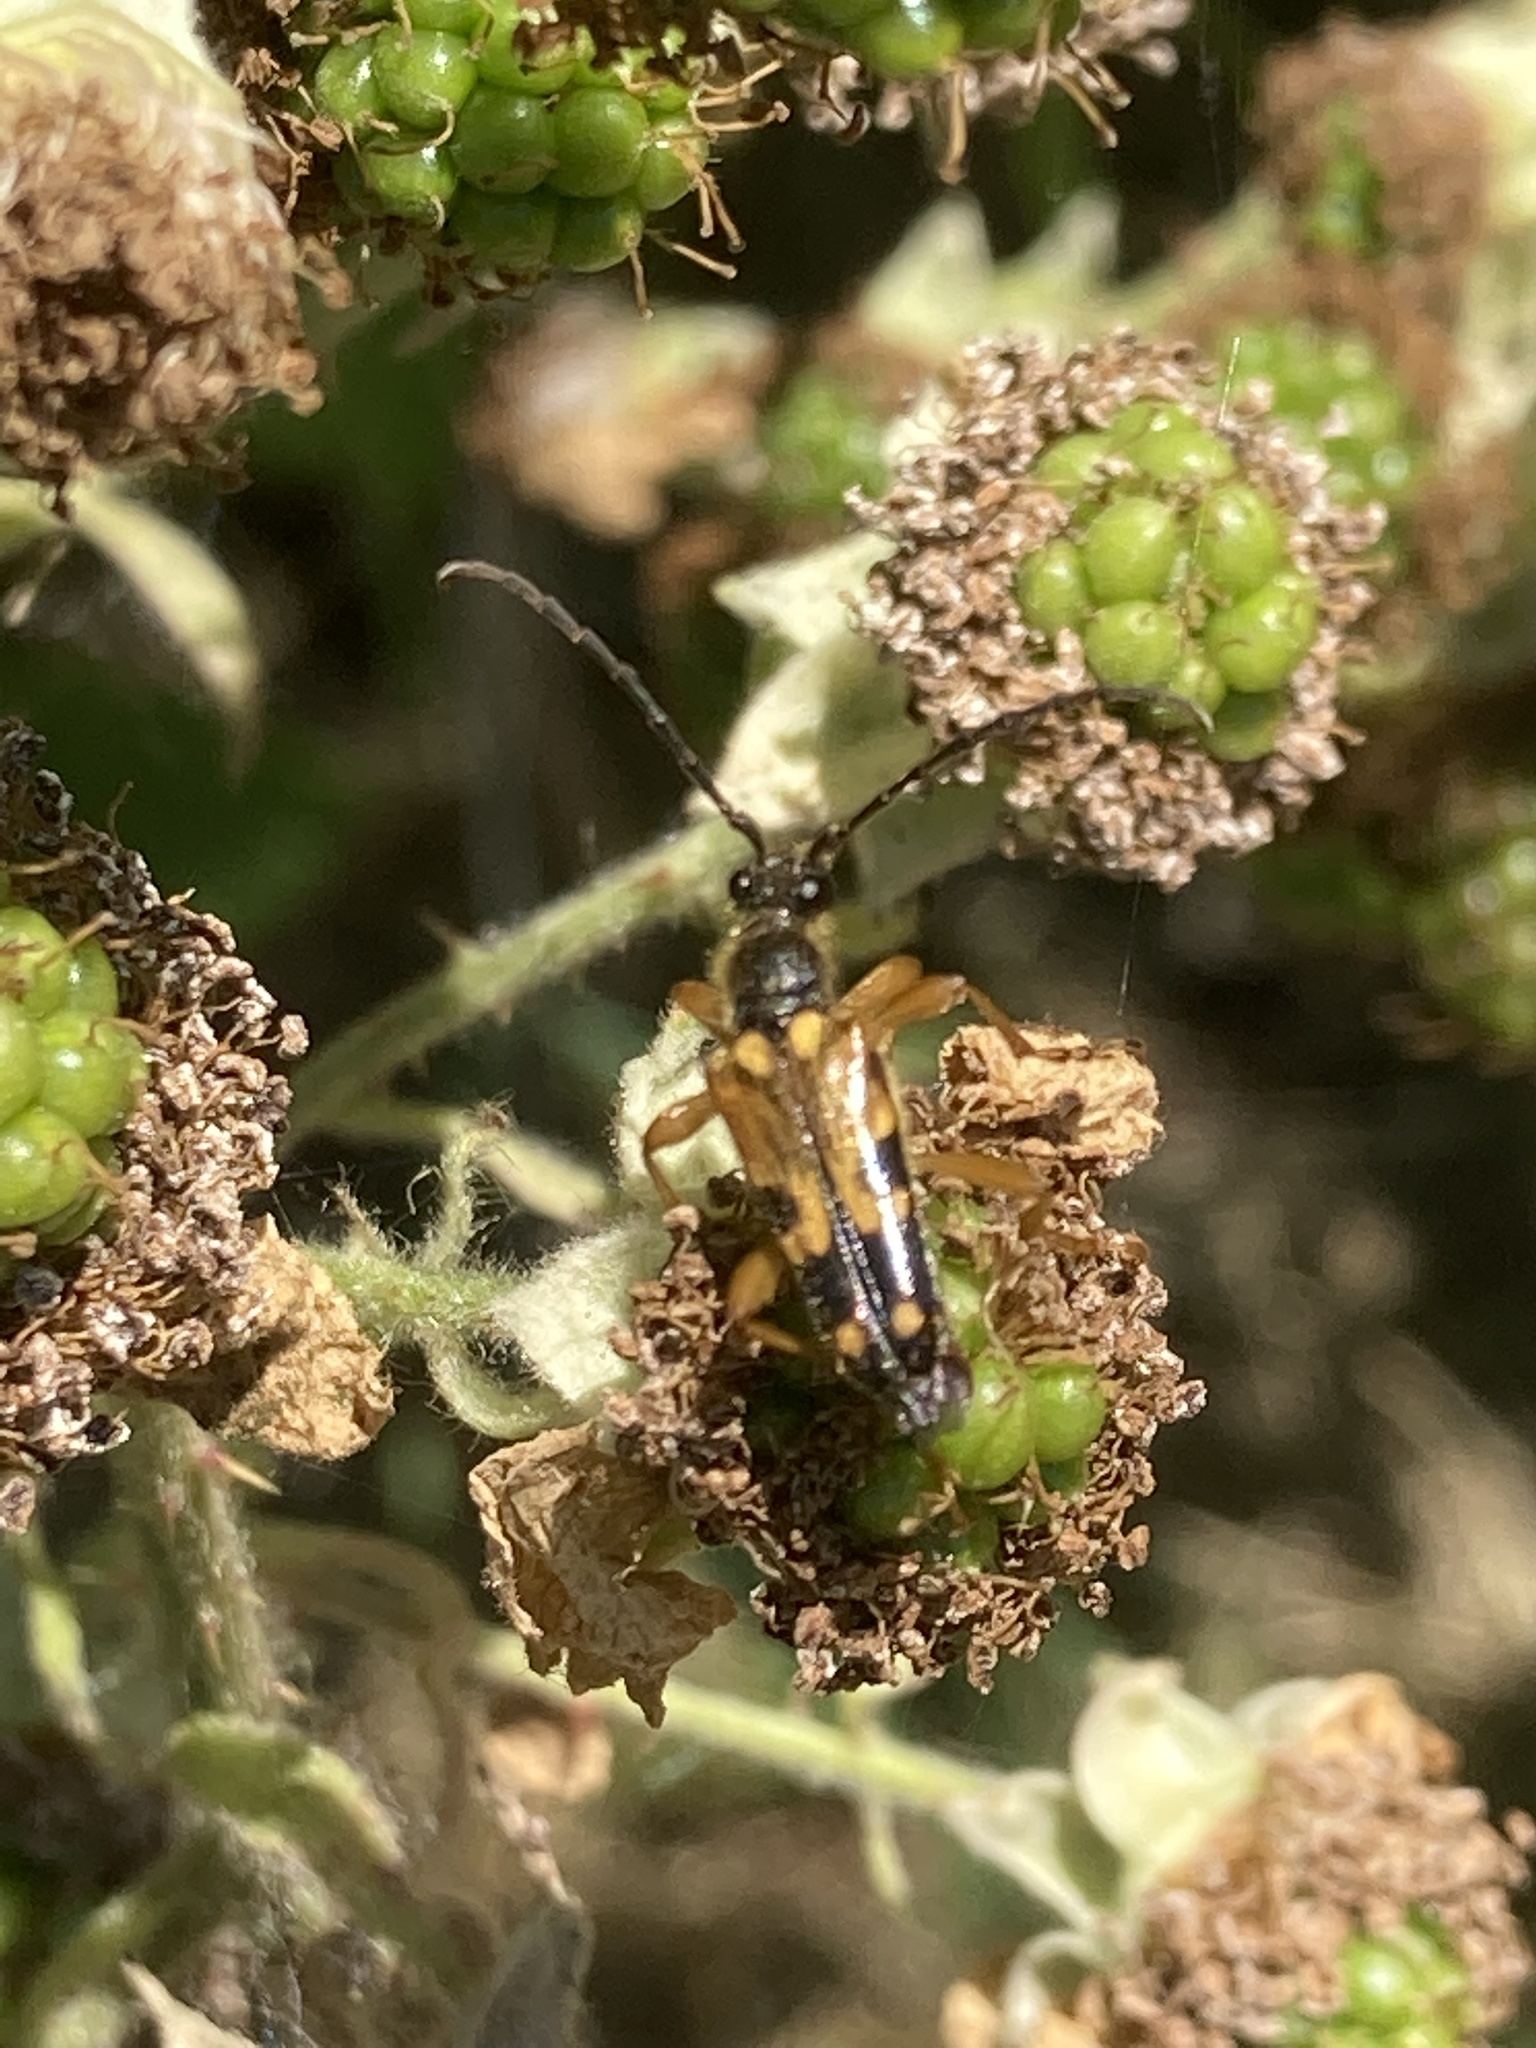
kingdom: Animalia
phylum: Arthropoda
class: Insecta
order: Coleoptera
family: Cerambycidae
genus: Xestoleptura
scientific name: Xestoleptura crassipes
